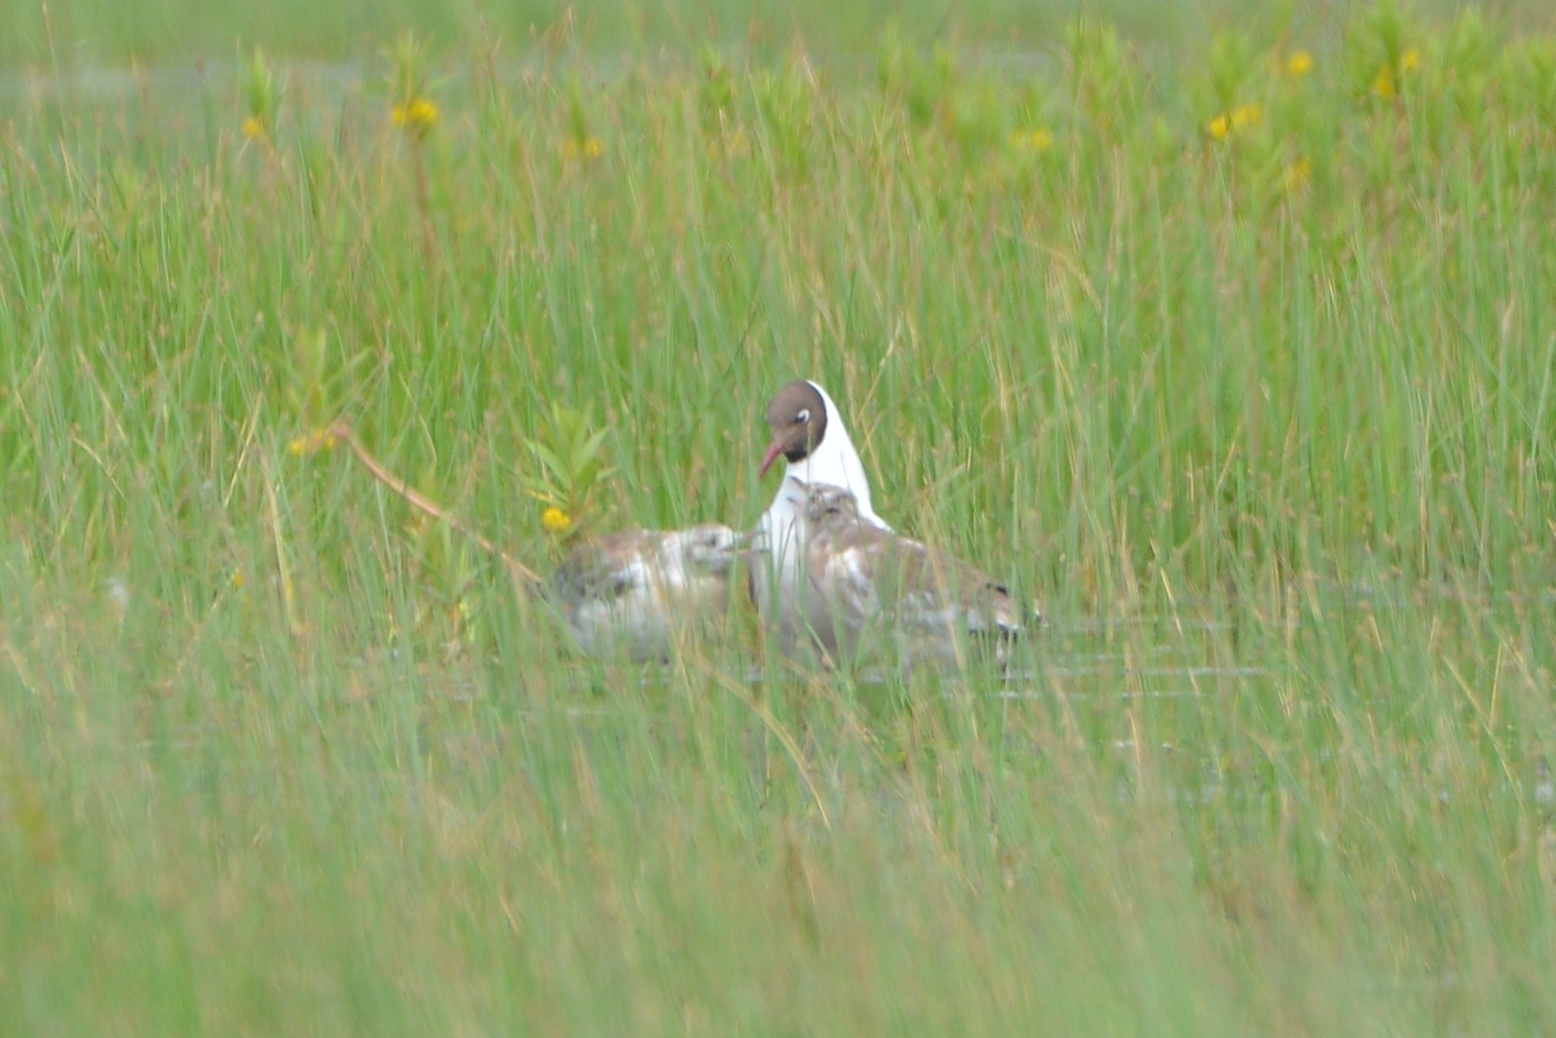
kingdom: Animalia
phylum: Chordata
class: Aves
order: Charadriiformes
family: Laridae
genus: Chroicocephalus
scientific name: Chroicocephalus ridibundus
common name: Black-headed gull
